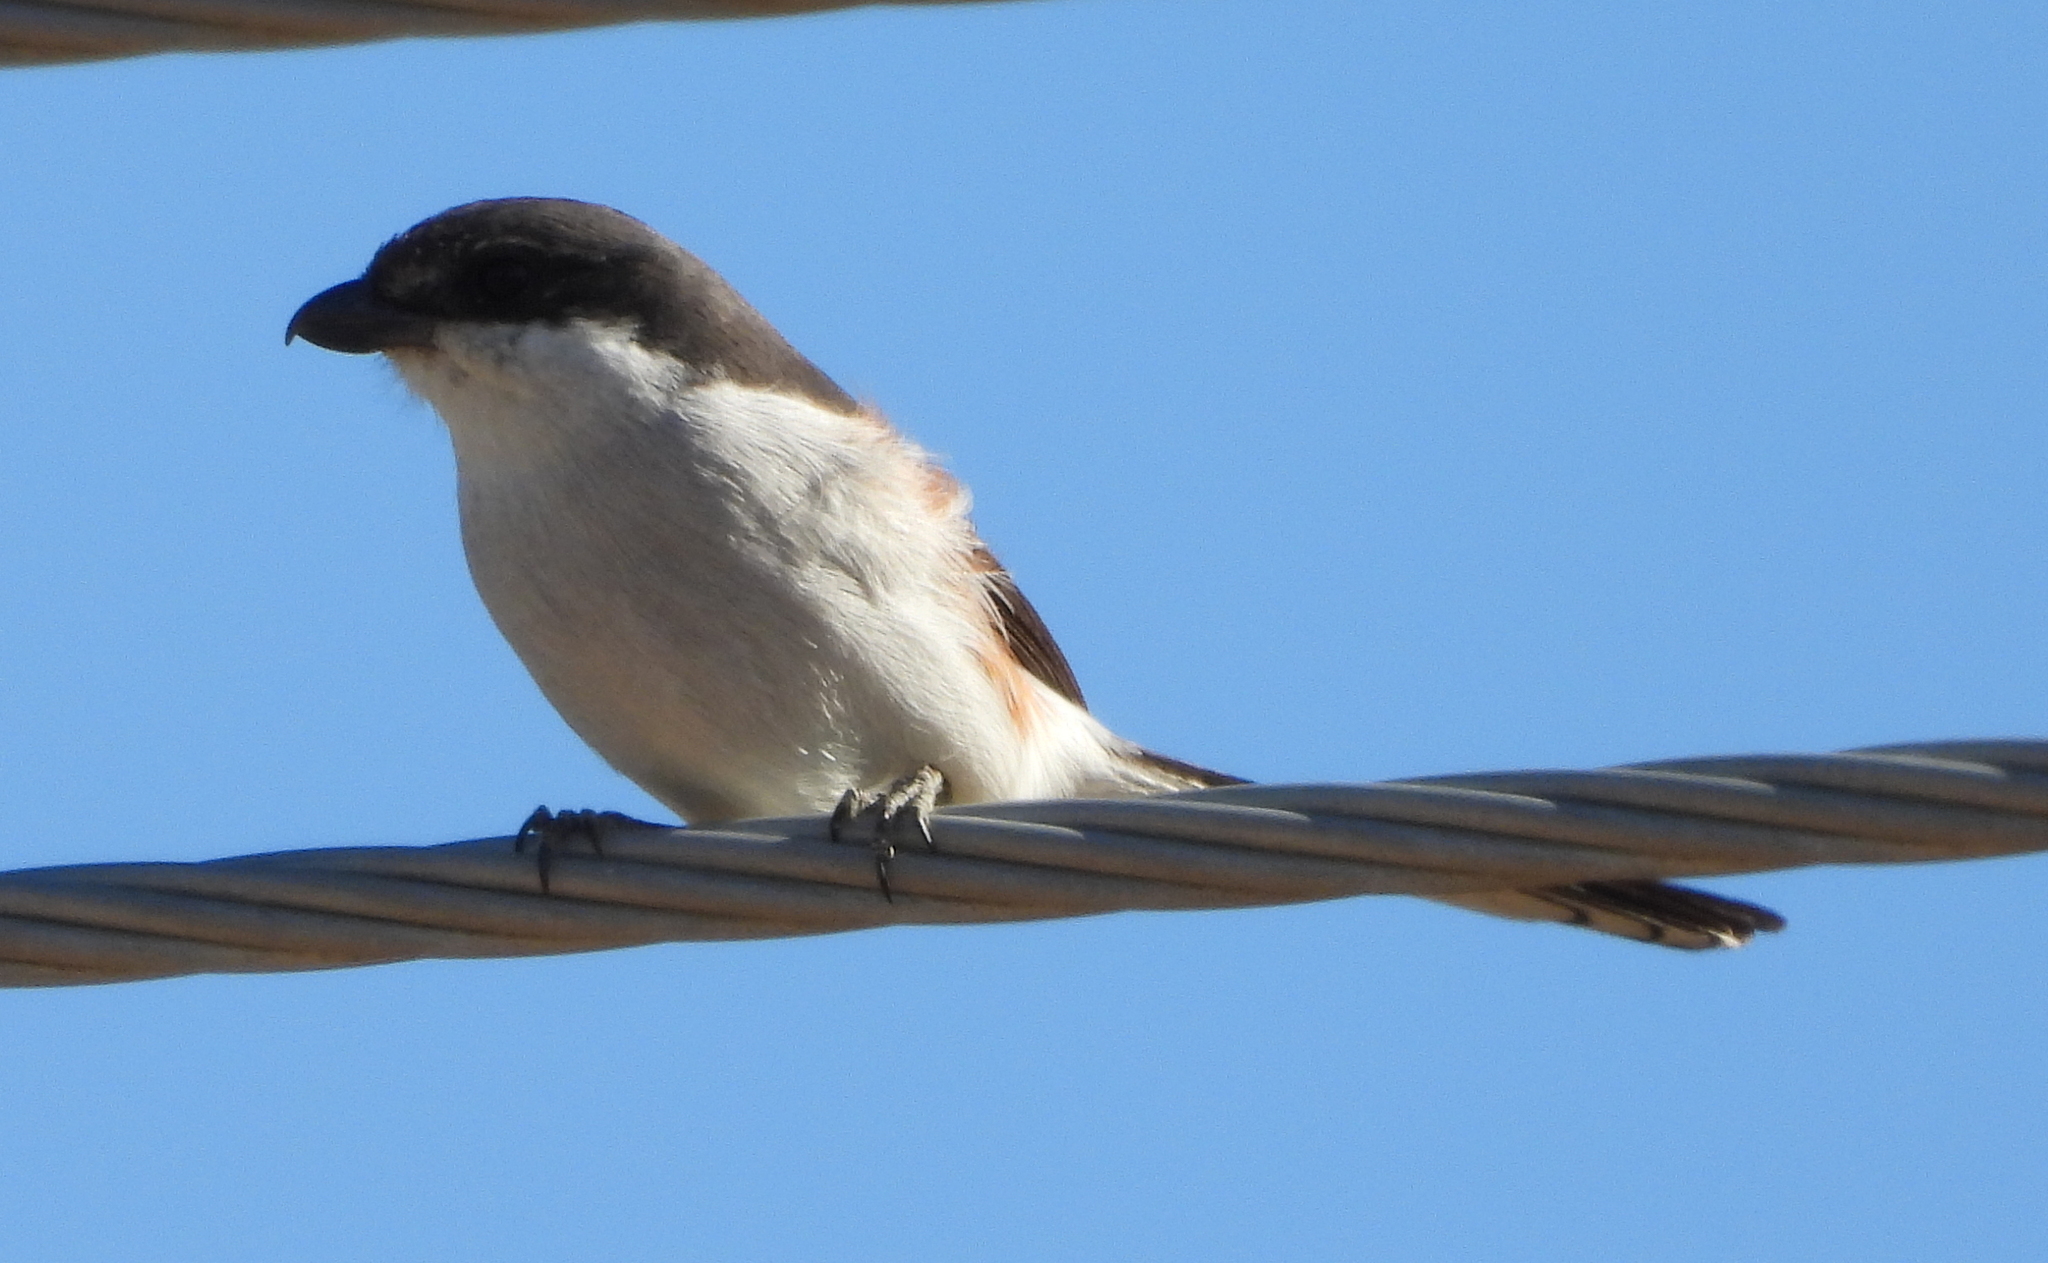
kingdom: Animalia
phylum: Chordata
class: Aves
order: Passeriformes
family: Laniidae
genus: Lanius
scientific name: Lanius collaris
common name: Southern fiscal
